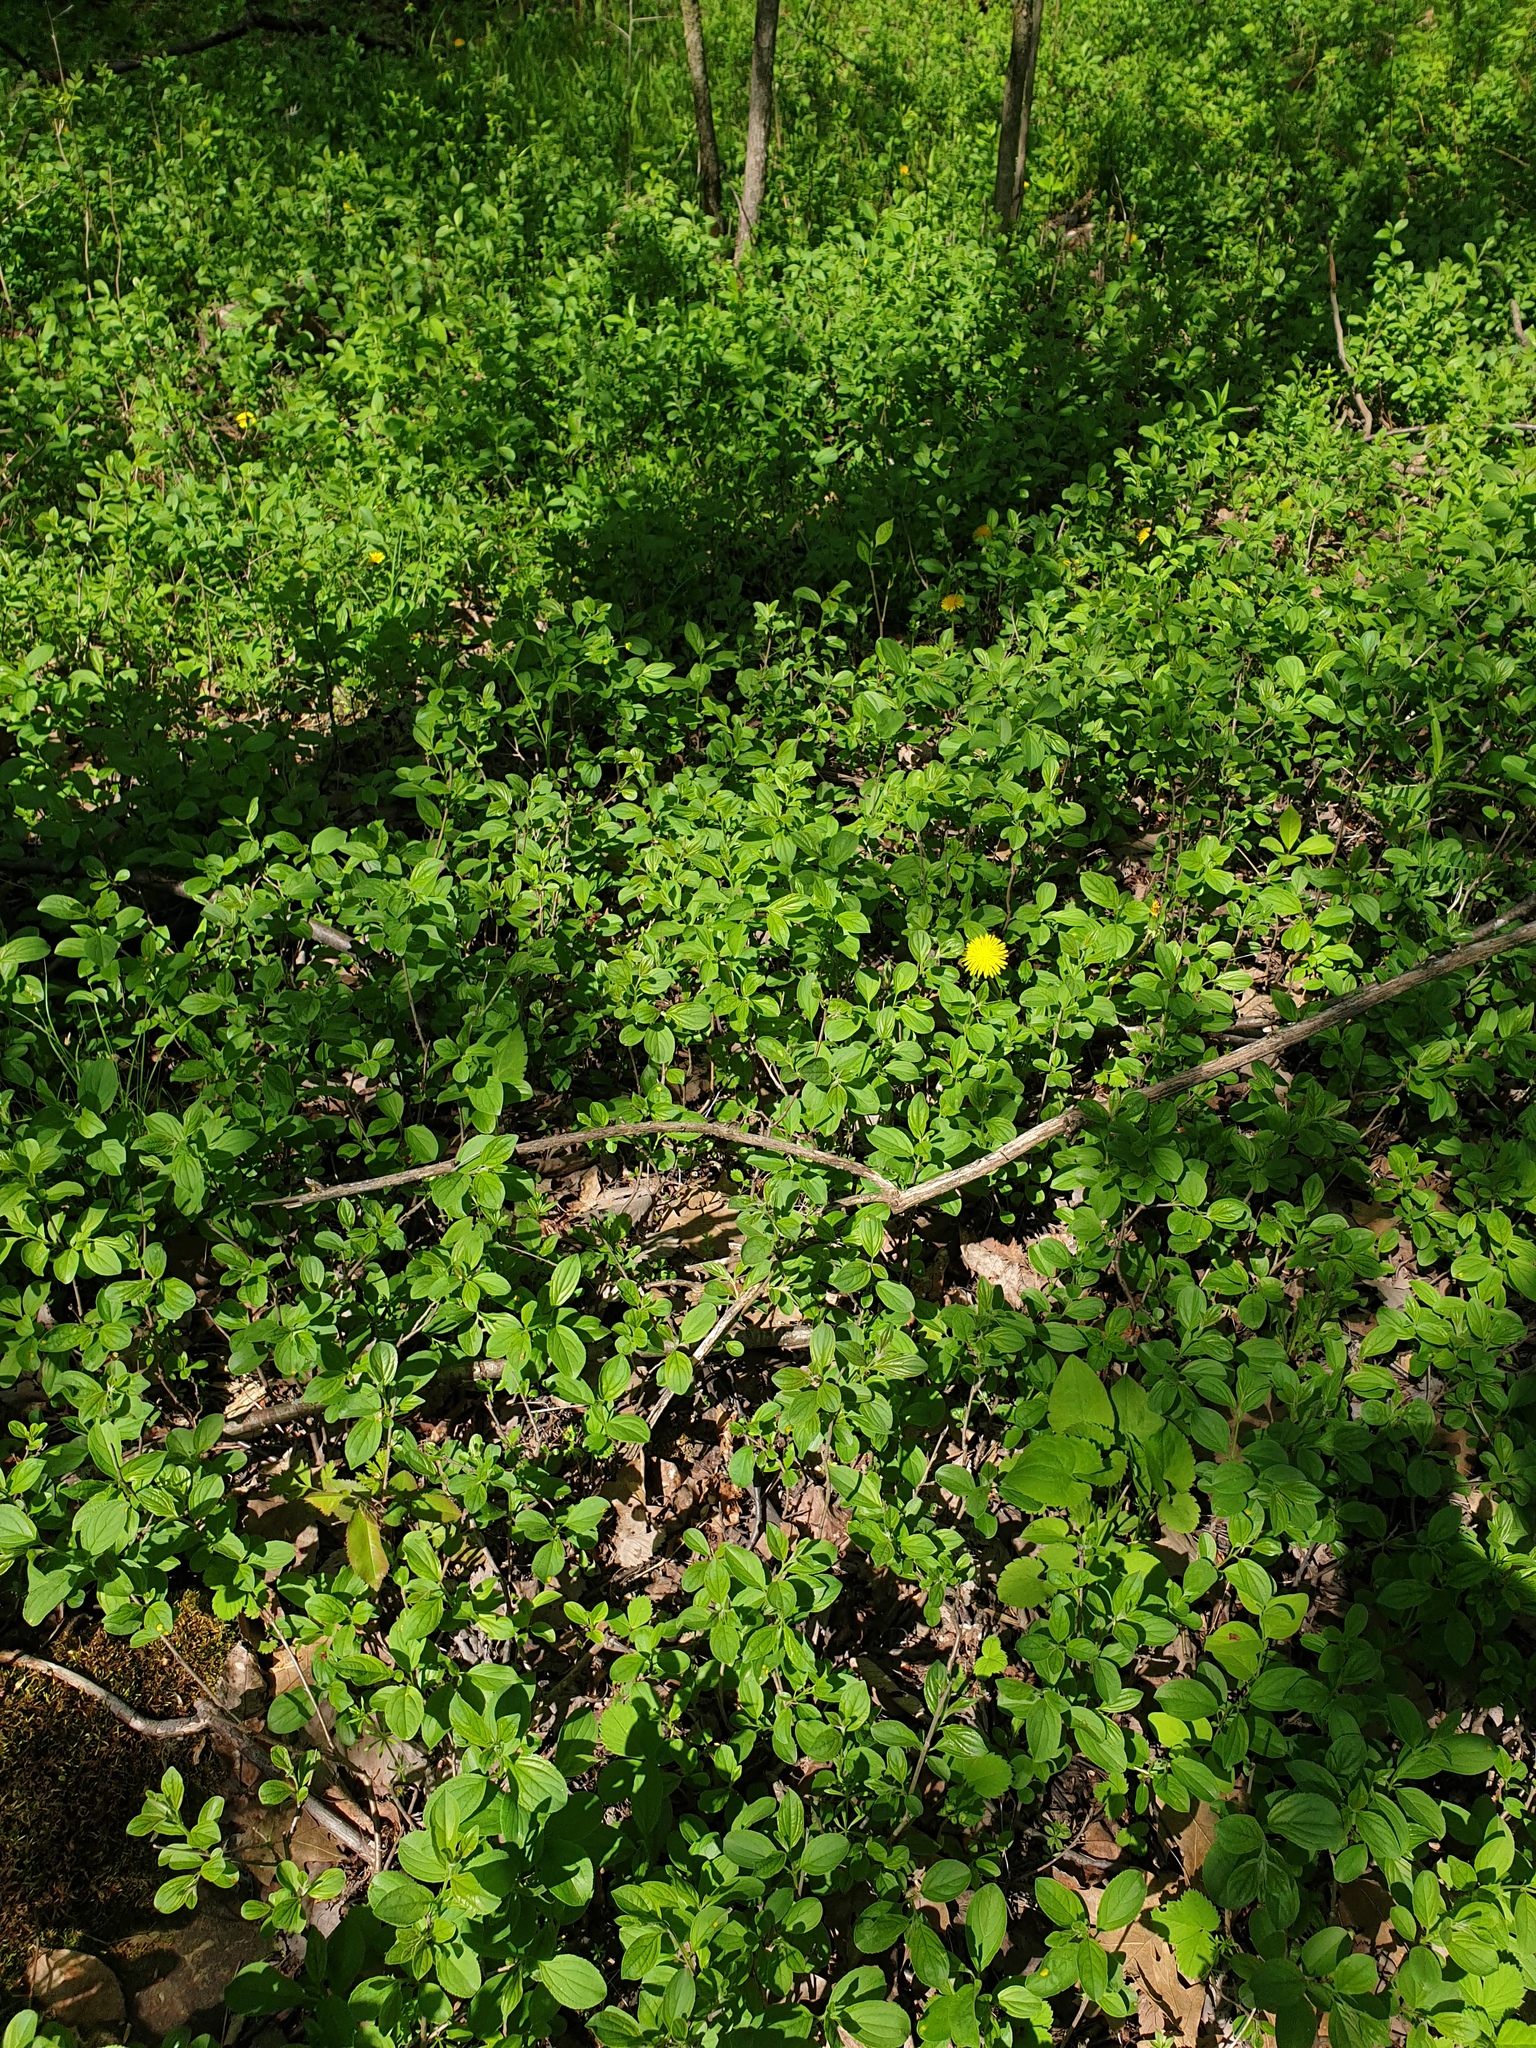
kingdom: Plantae
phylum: Tracheophyta
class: Magnoliopsida
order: Rosales
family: Rhamnaceae
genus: Rhamnus
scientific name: Rhamnus cathartica
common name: Common buckthorn
